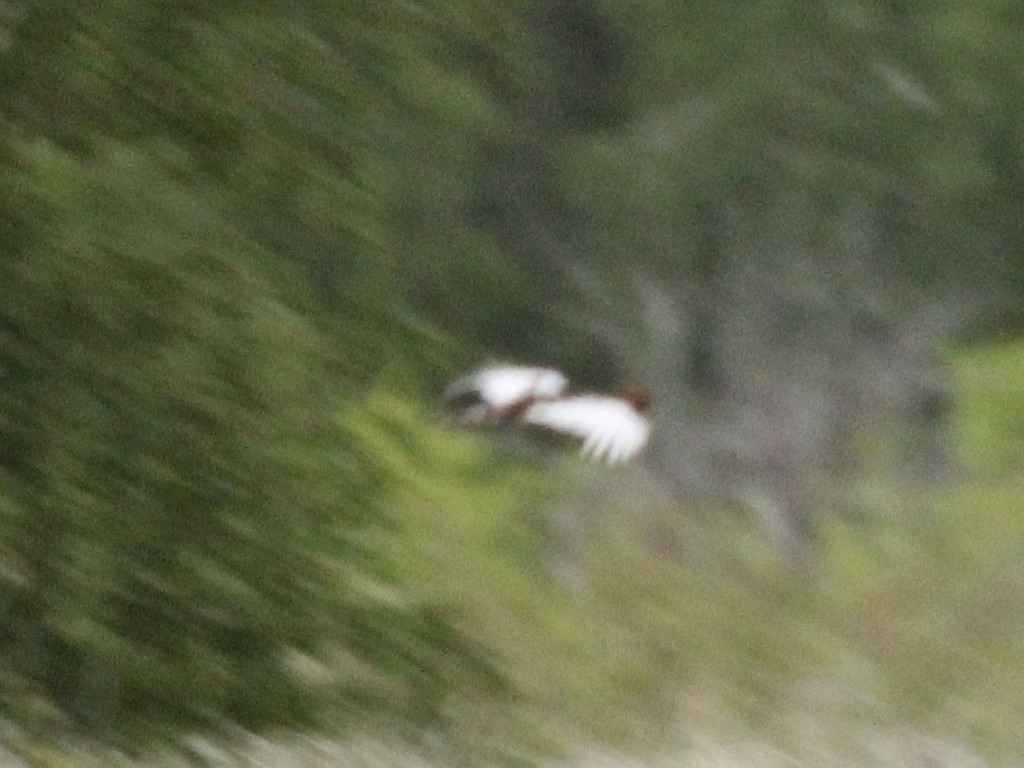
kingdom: Animalia
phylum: Chordata
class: Aves
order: Galliformes
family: Phasianidae
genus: Lagopus
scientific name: Lagopus lagopus
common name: Willow ptarmigan
